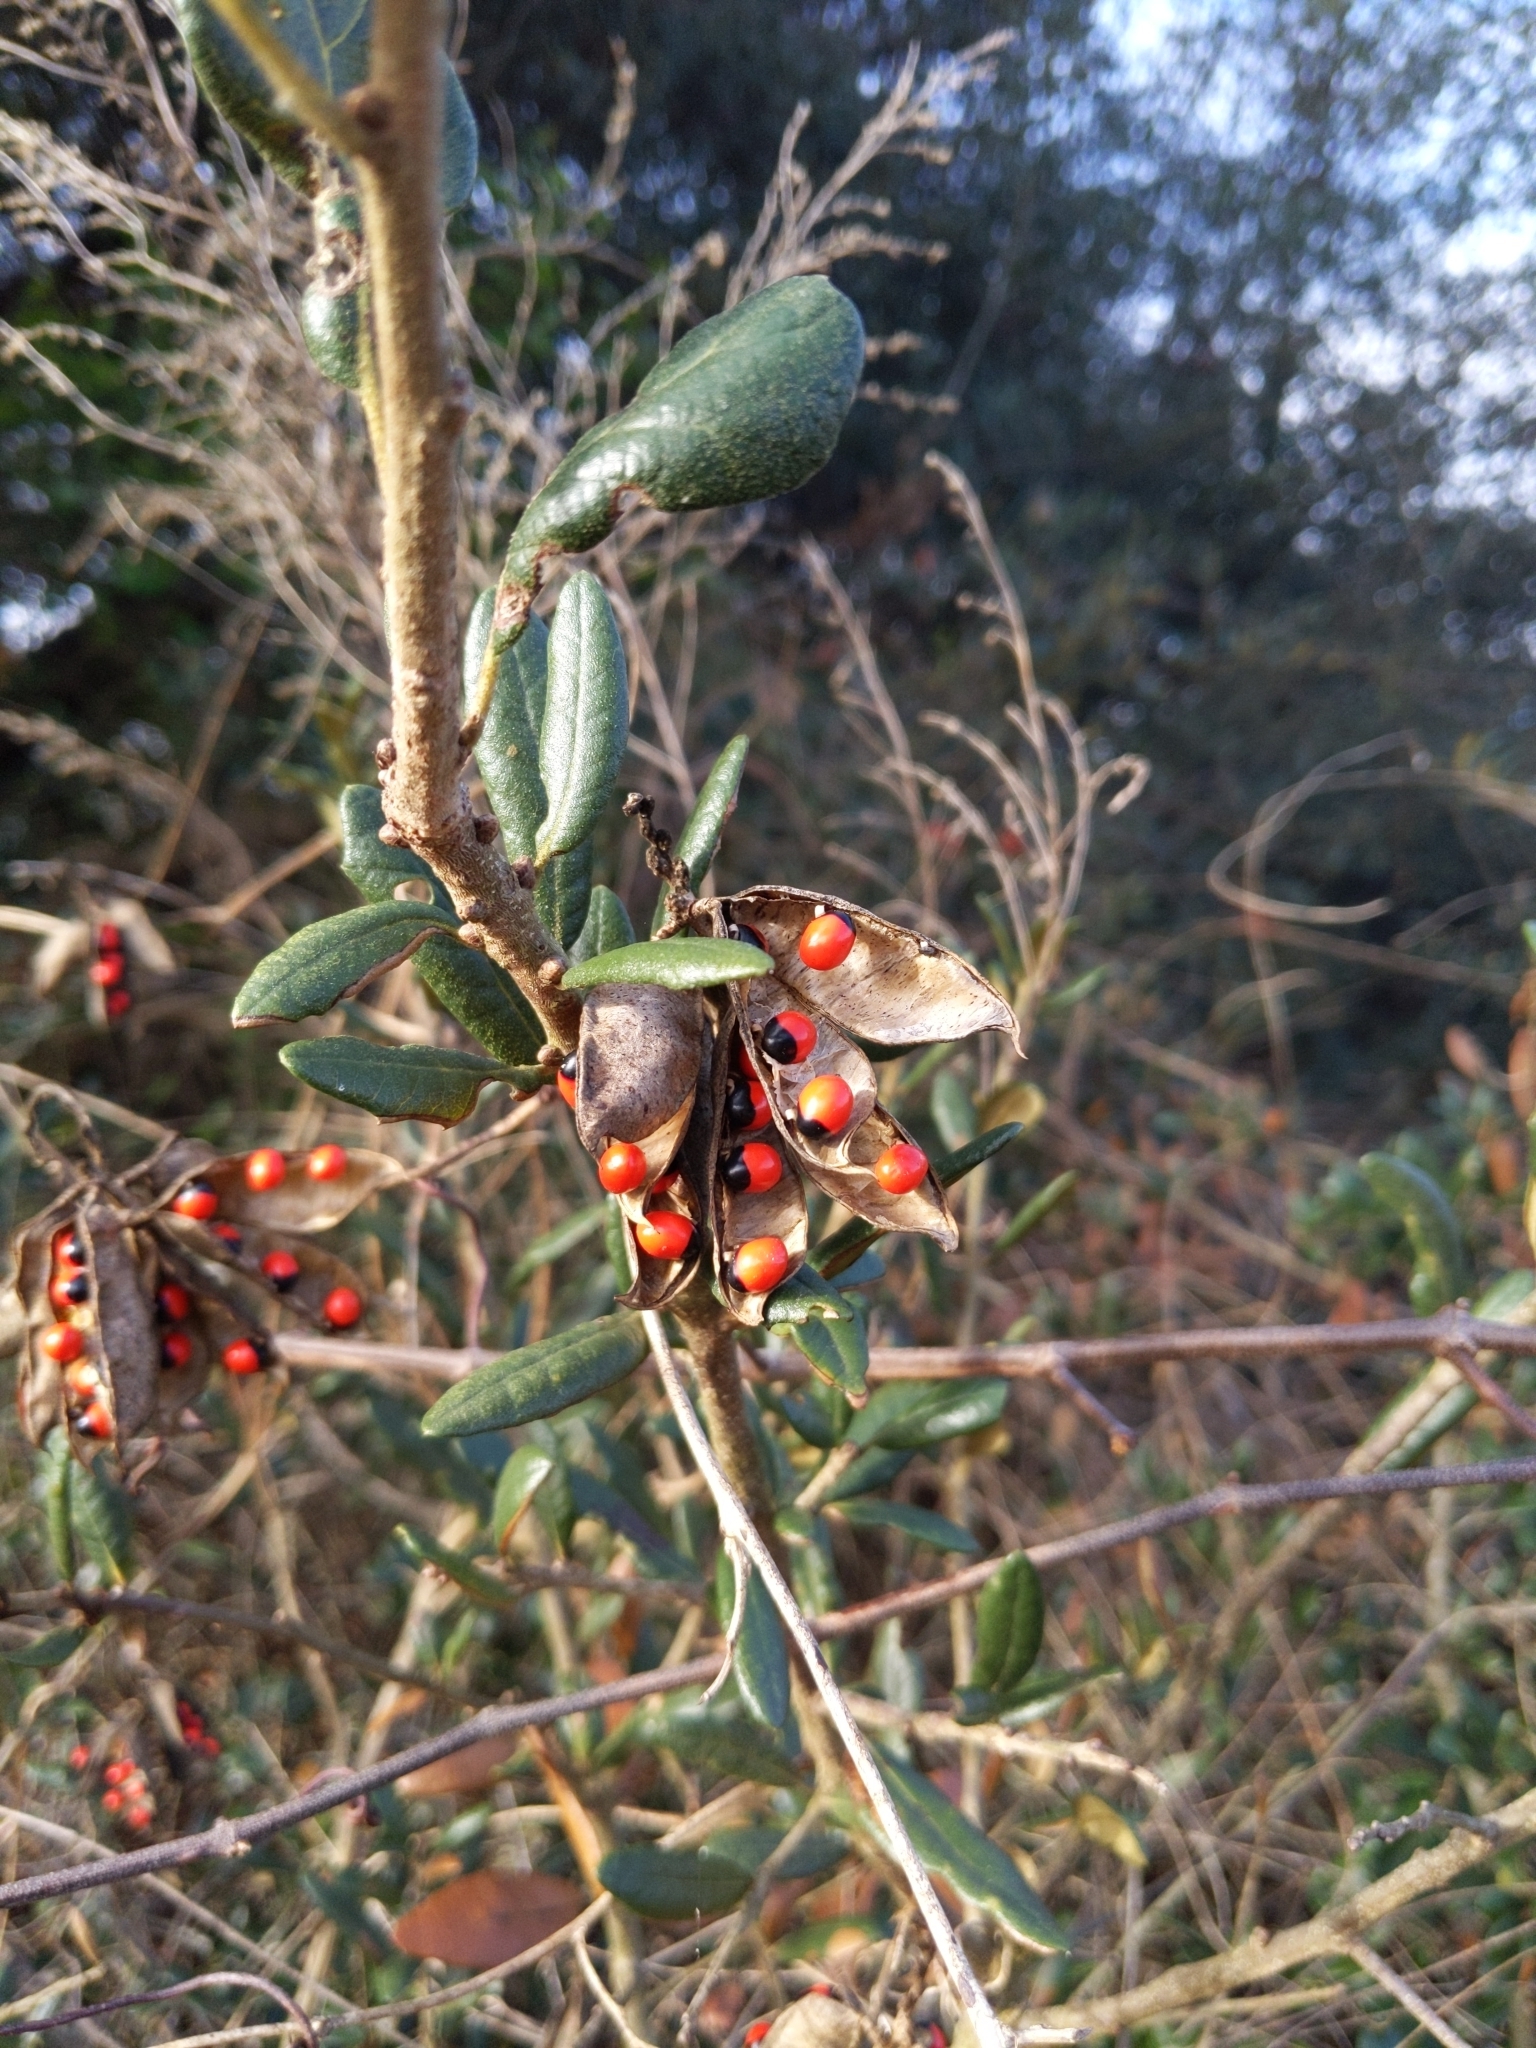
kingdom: Plantae
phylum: Tracheophyta
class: Magnoliopsida
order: Fabales
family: Fabaceae
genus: Abrus
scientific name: Abrus precatorius
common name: Rosarypea
